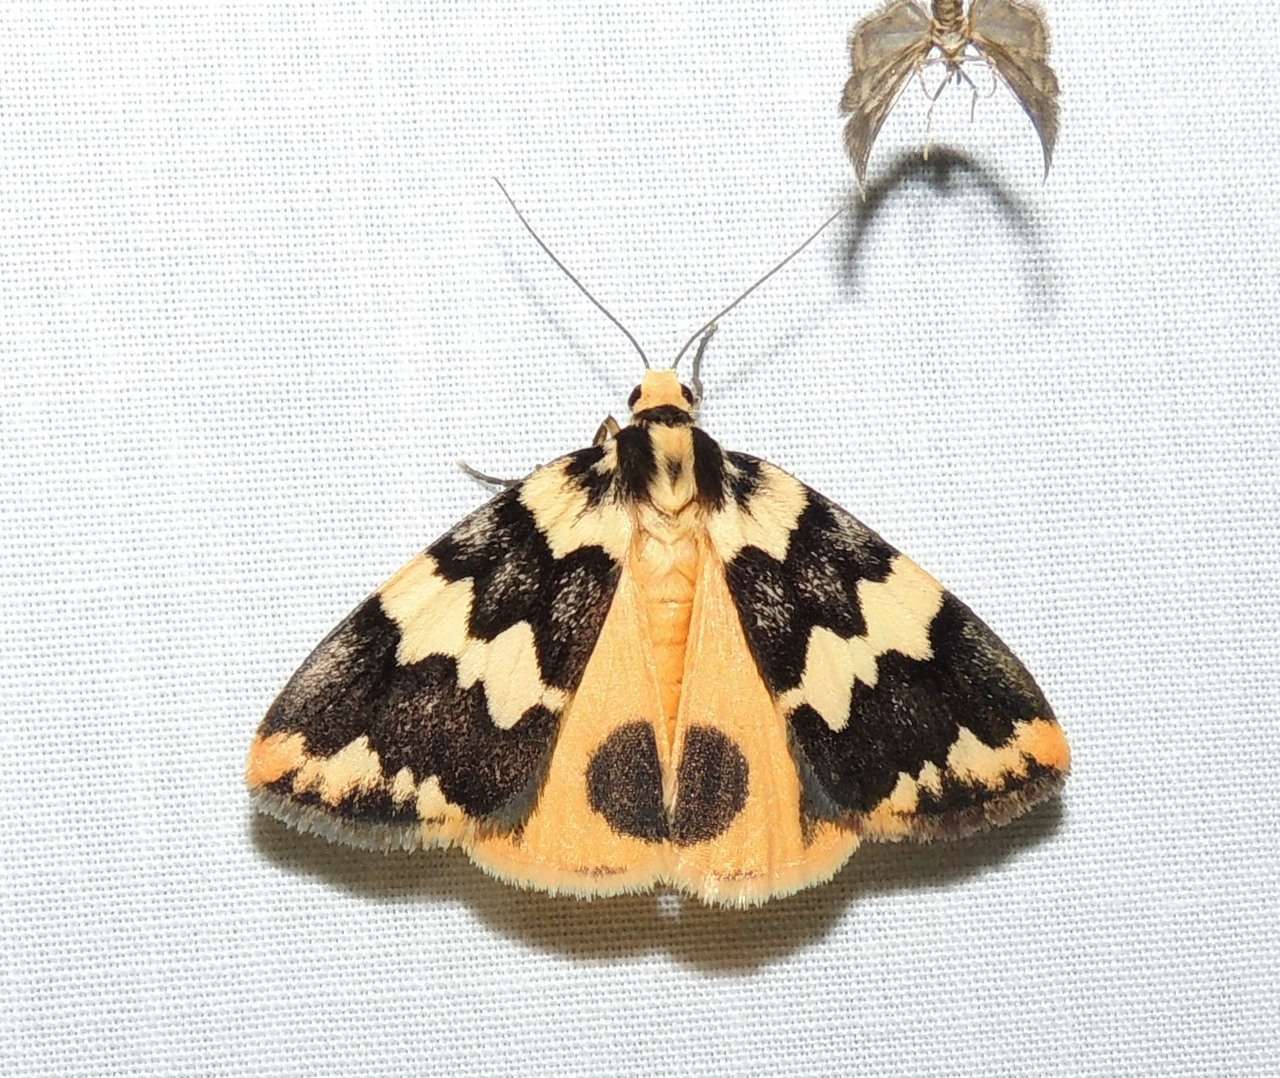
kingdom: Animalia
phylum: Arthropoda
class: Insecta
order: Lepidoptera
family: Erebidae
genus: Termessa
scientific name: Termessa shepherdi
